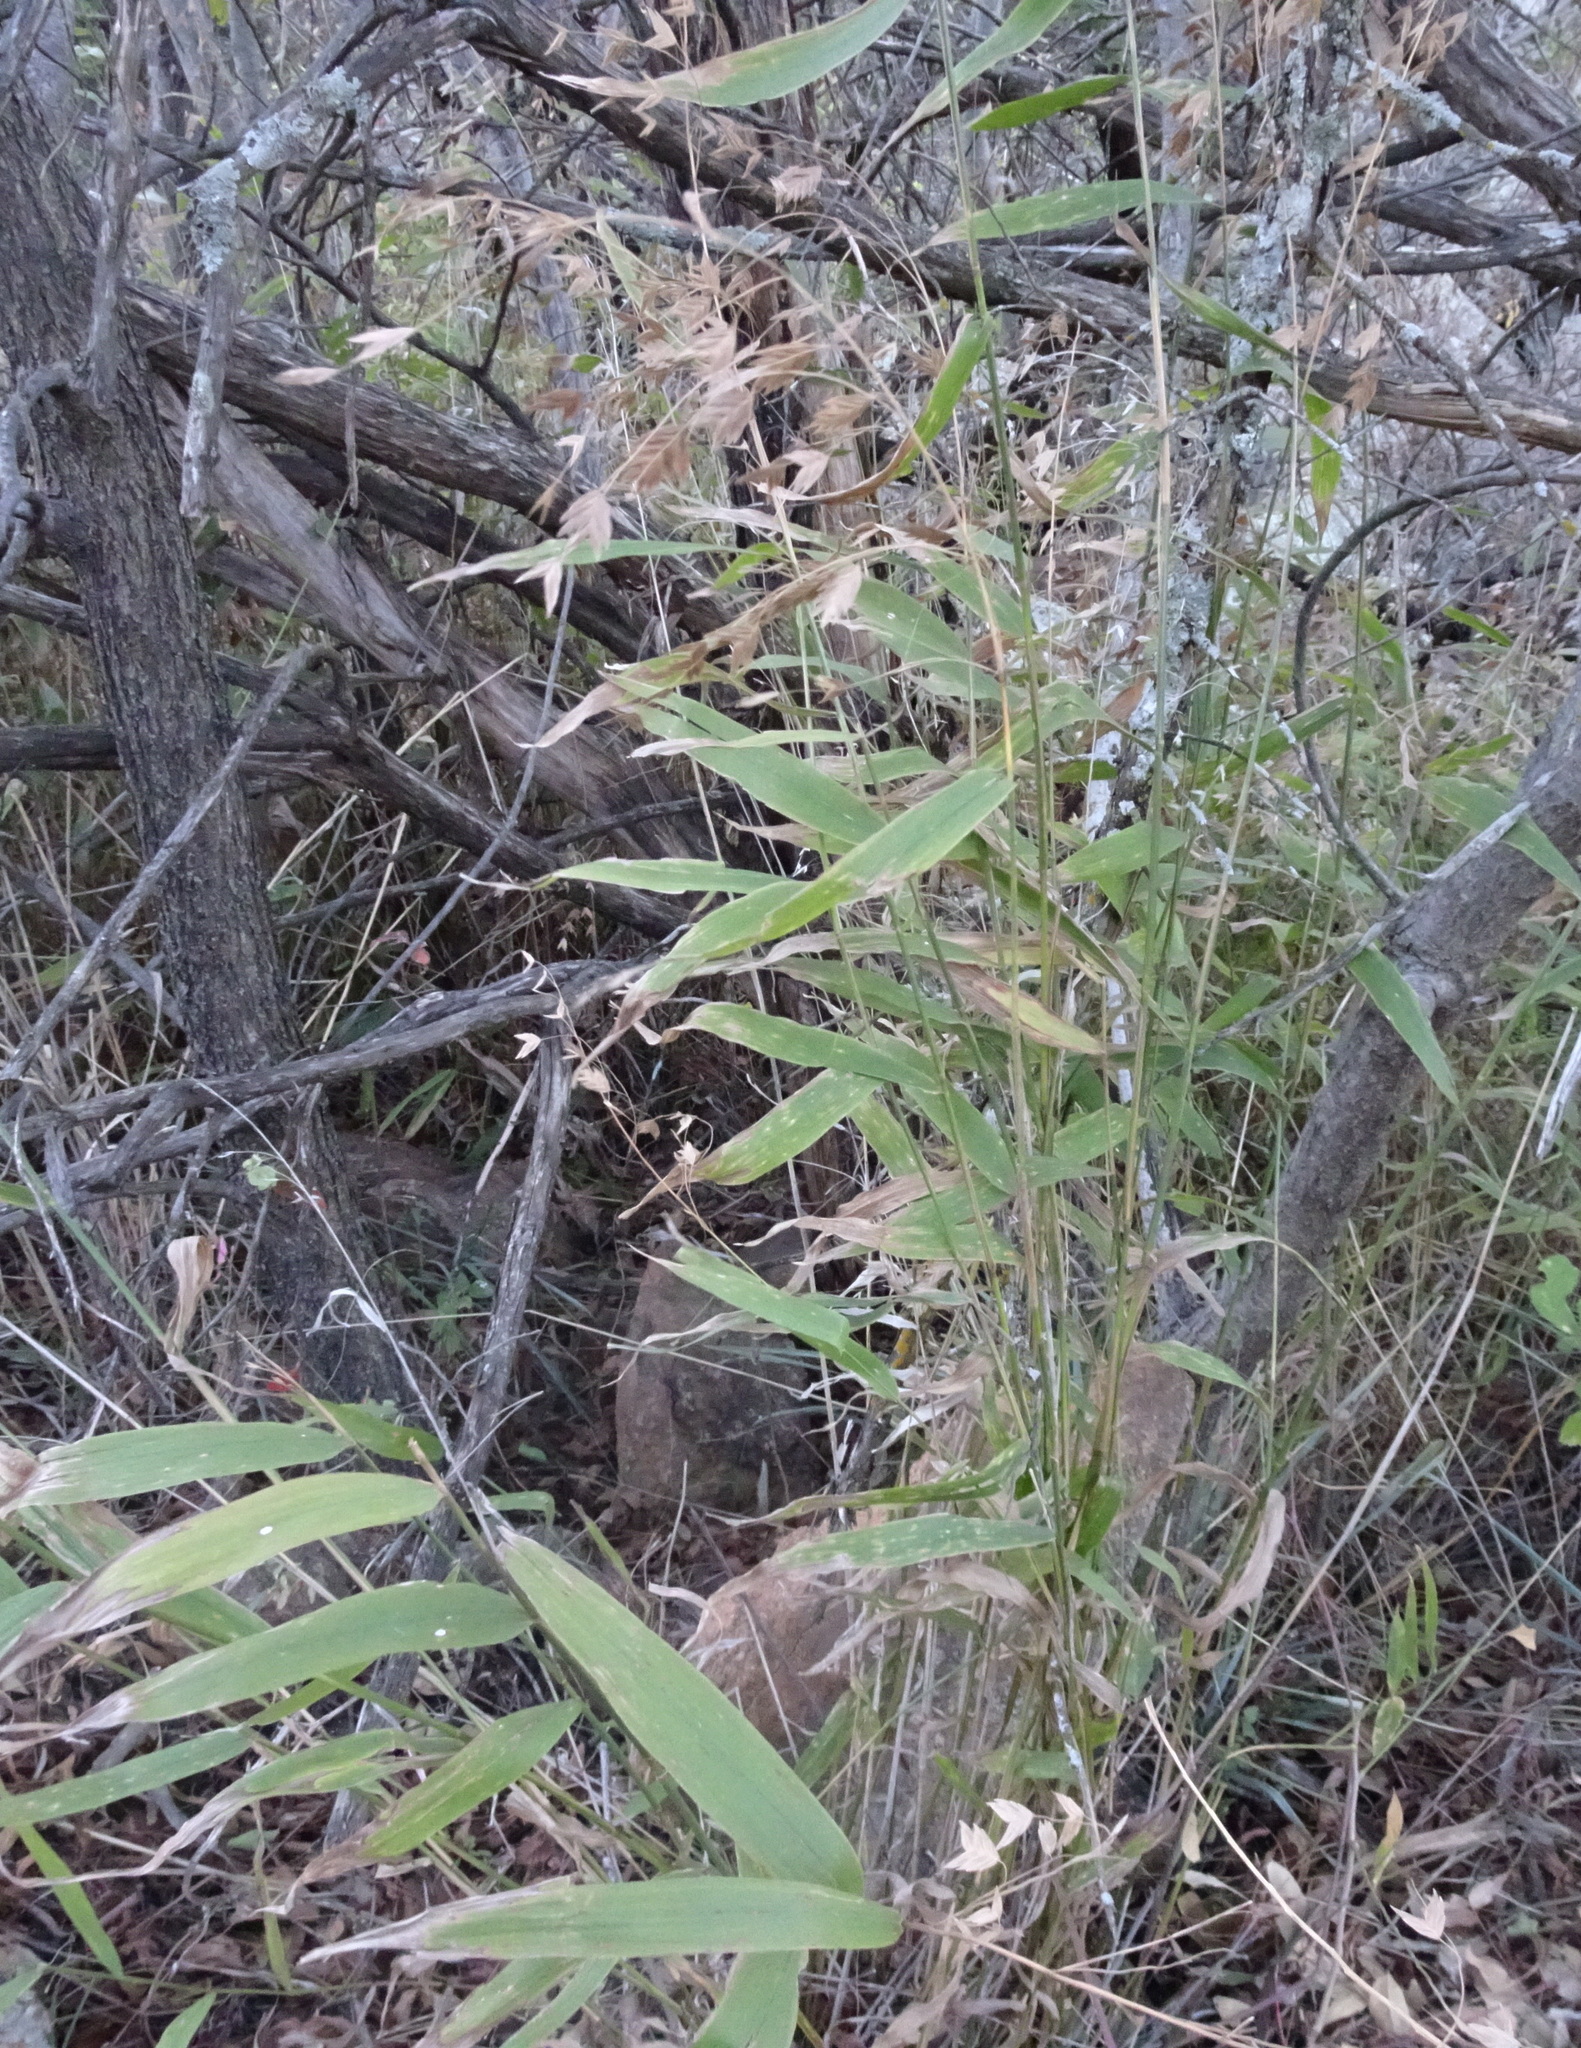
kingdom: Plantae
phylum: Tracheophyta
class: Liliopsida
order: Poales
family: Poaceae
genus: Chasmanthium
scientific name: Chasmanthium latifolium
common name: Broad-leaved chasmanthium
